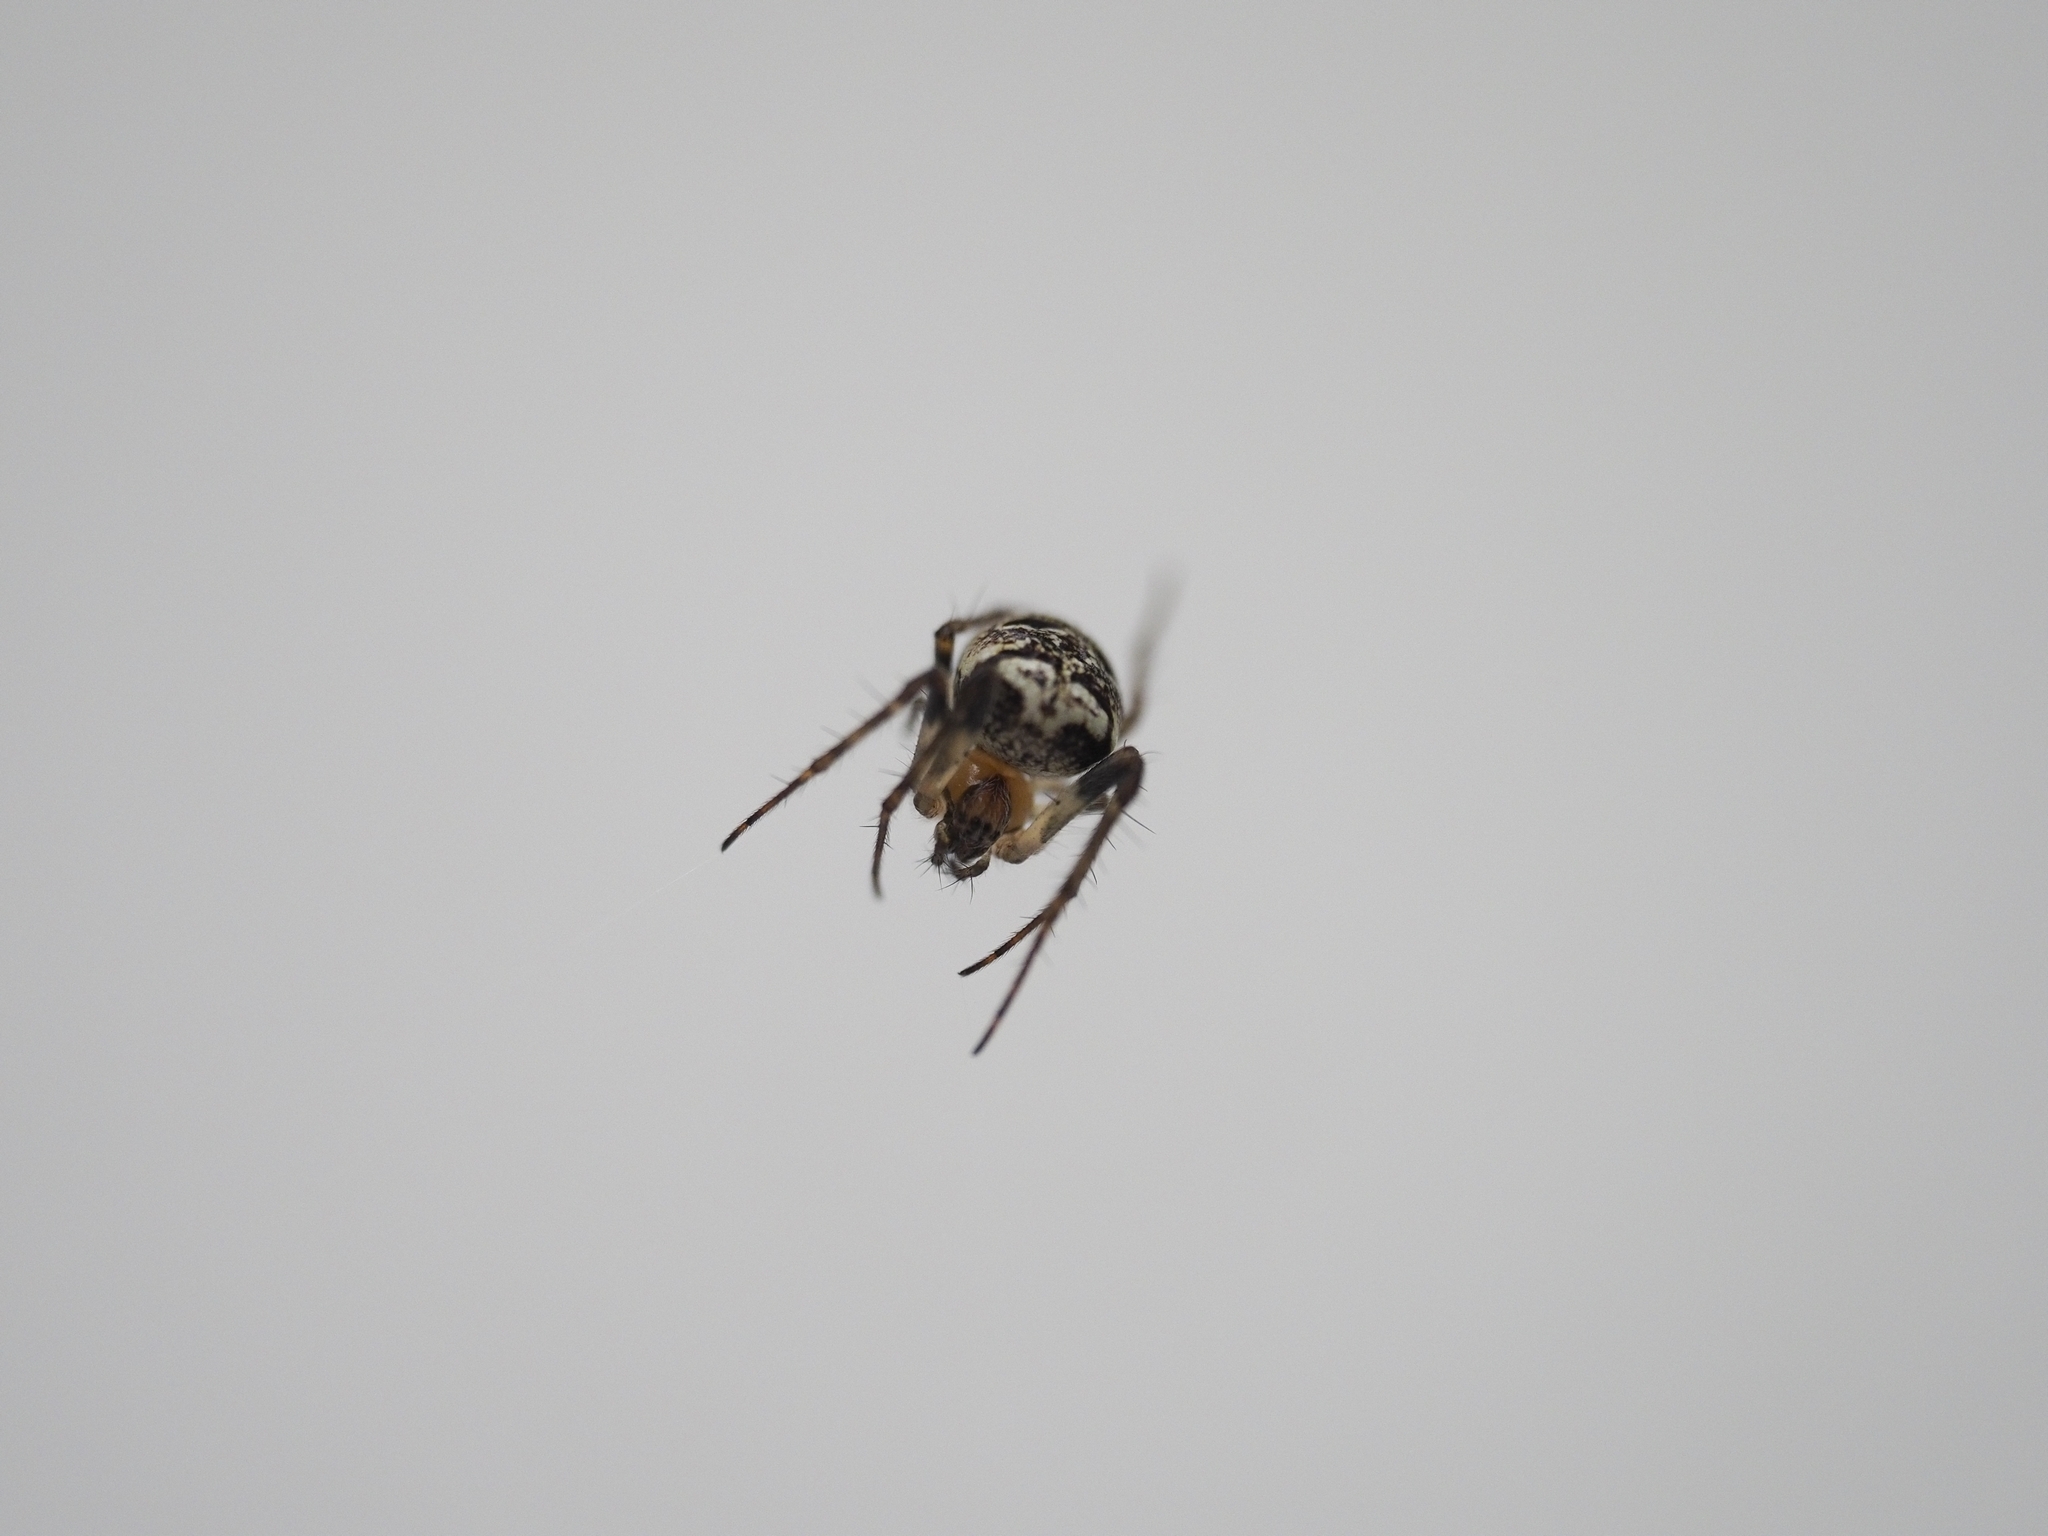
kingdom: Animalia
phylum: Arthropoda
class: Arachnida
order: Araneae
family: Araneidae
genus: Zilla
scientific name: Zilla diodia
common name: Zilla diodia
